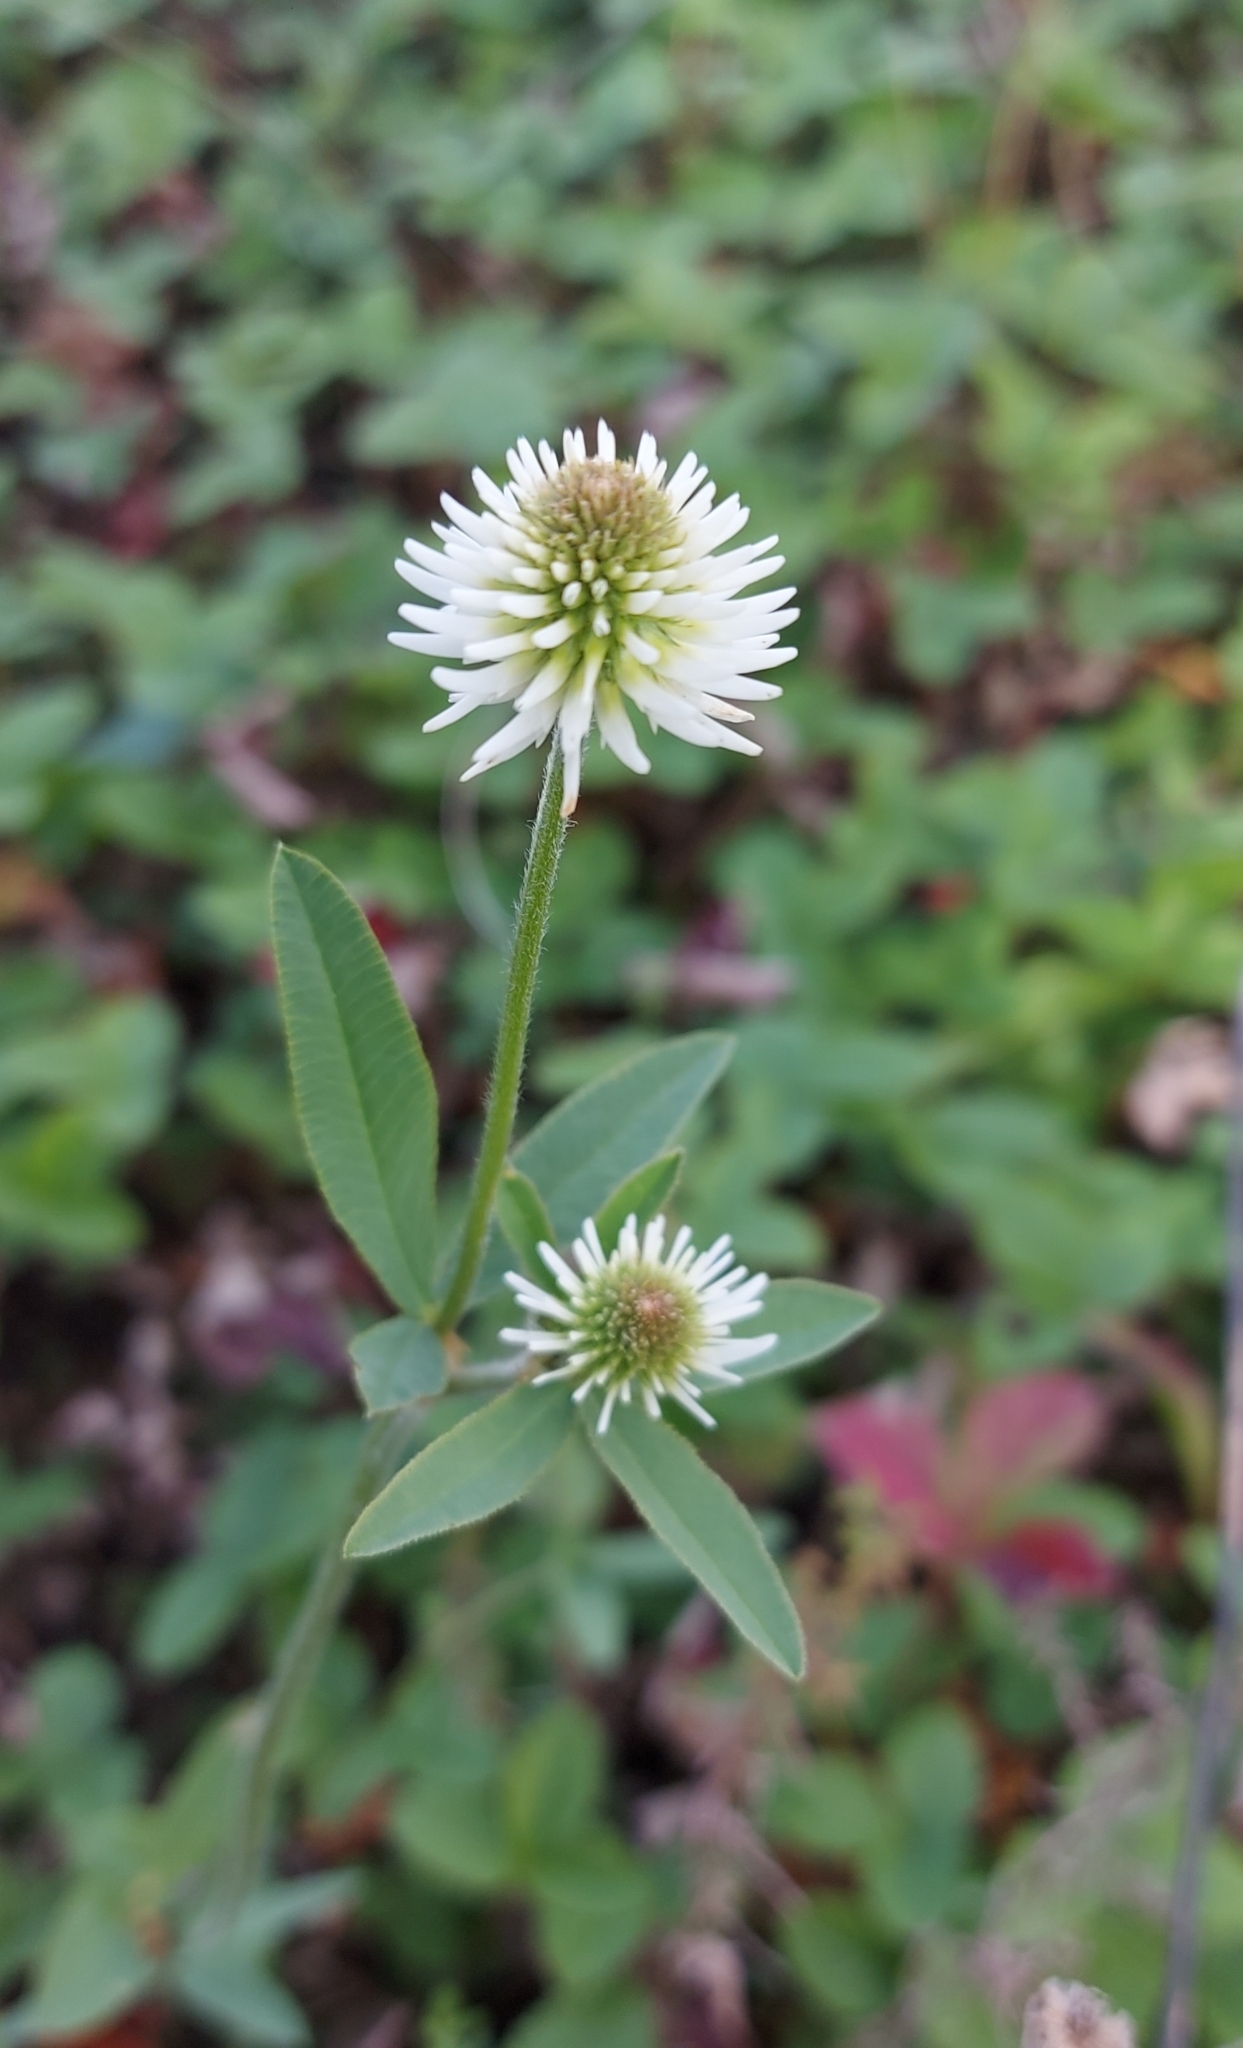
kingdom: Plantae
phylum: Tracheophyta
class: Magnoliopsida
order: Fabales
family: Fabaceae
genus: Trifolium
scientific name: Trifolium montanum
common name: Mountain clover
